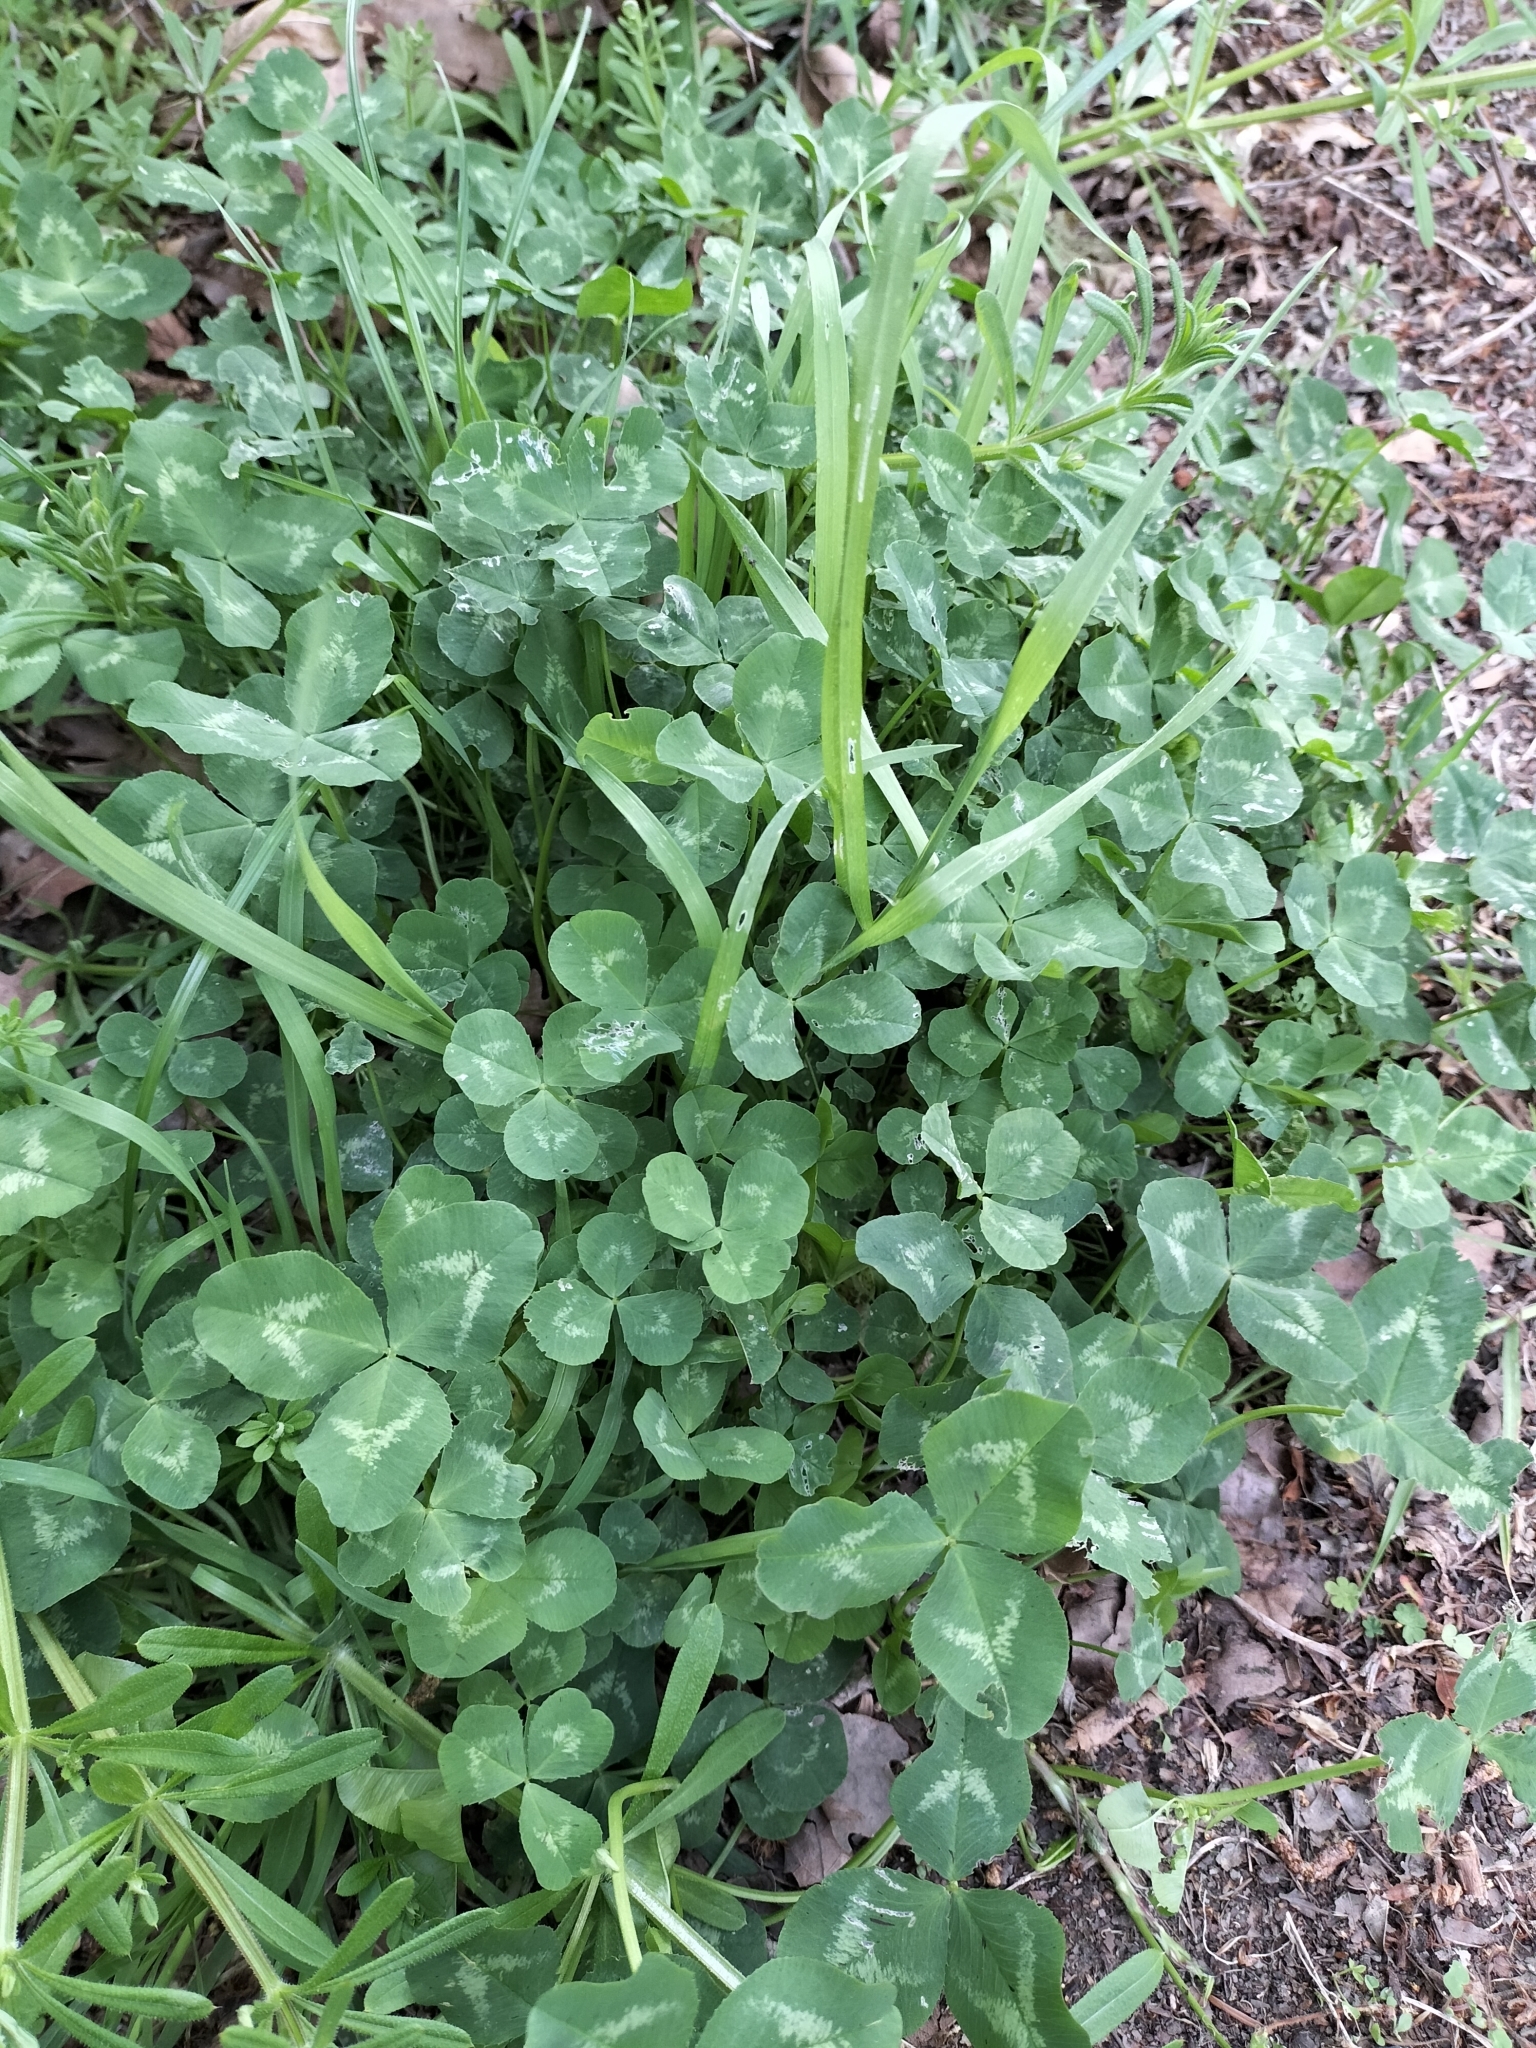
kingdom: Plantae
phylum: Tracheophyta
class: Magnoliopsida
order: Fabales
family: Fabaceae
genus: Trifolium
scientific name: Trifolium repens
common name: White clover
